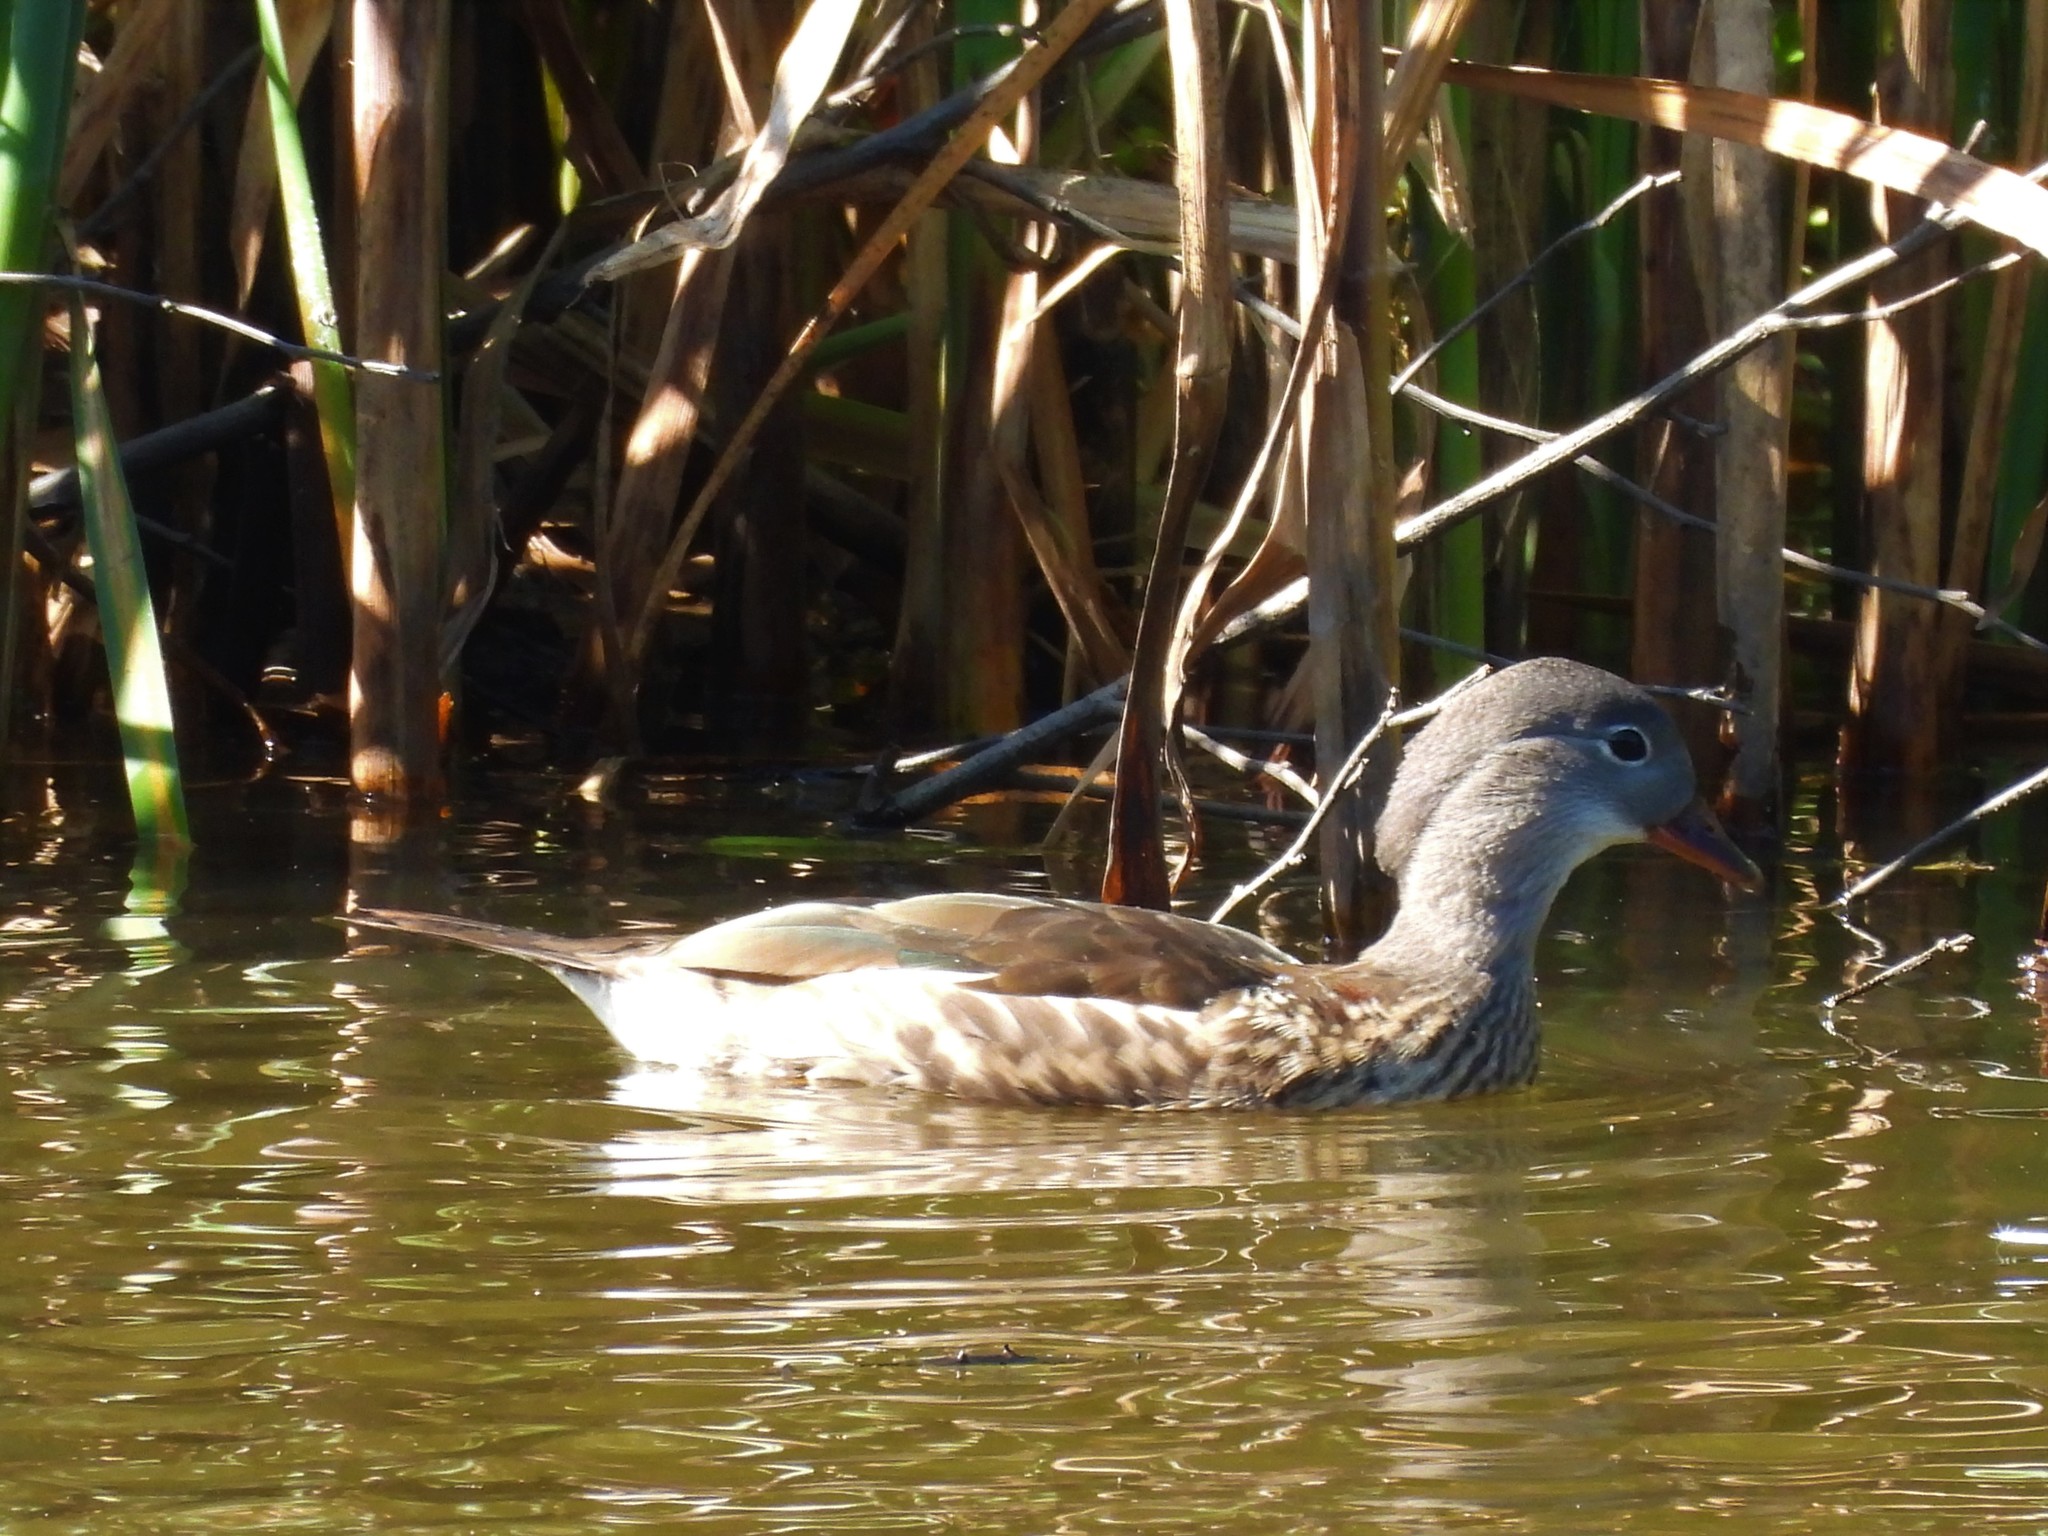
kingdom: Animalia
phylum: Chordata
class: Aves
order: Anseriformes
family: Anatidae
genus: Aix
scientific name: Aix galericulata
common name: Mandarin duck
